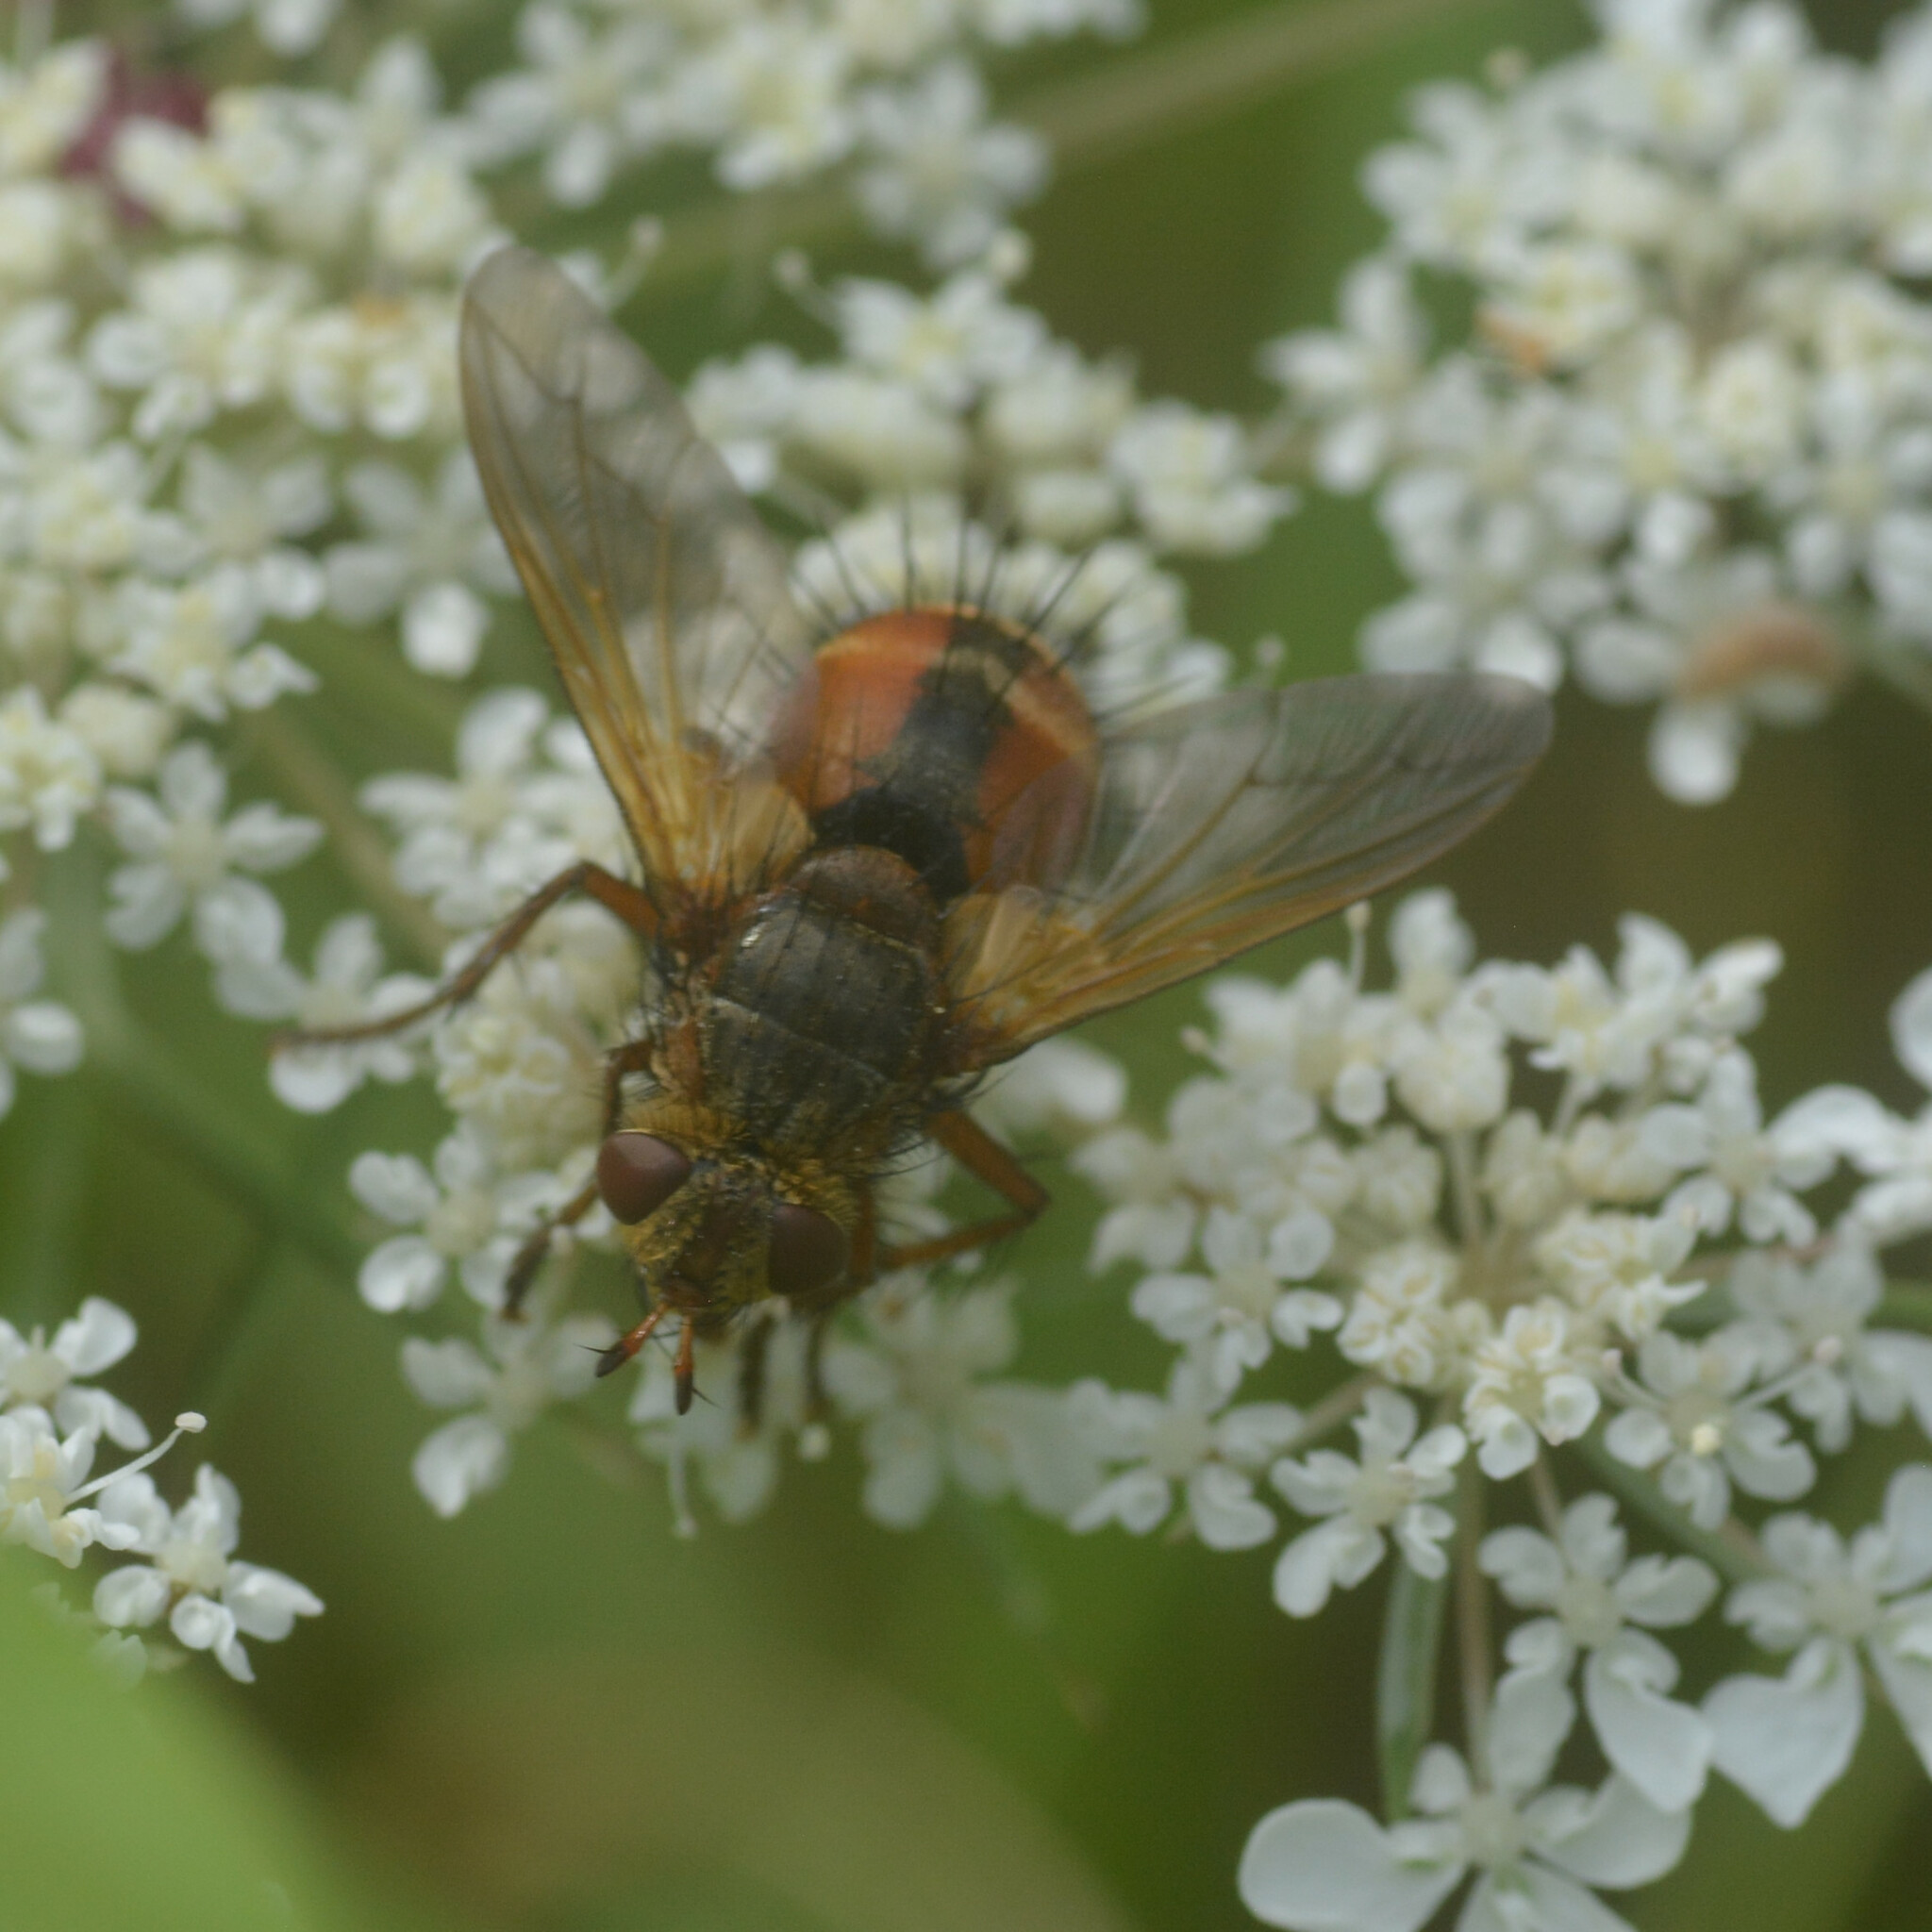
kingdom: Animalia
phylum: Arthropoda
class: Insecta
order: Diptera
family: Tachinidae
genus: Tachina
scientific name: Tachina fera
